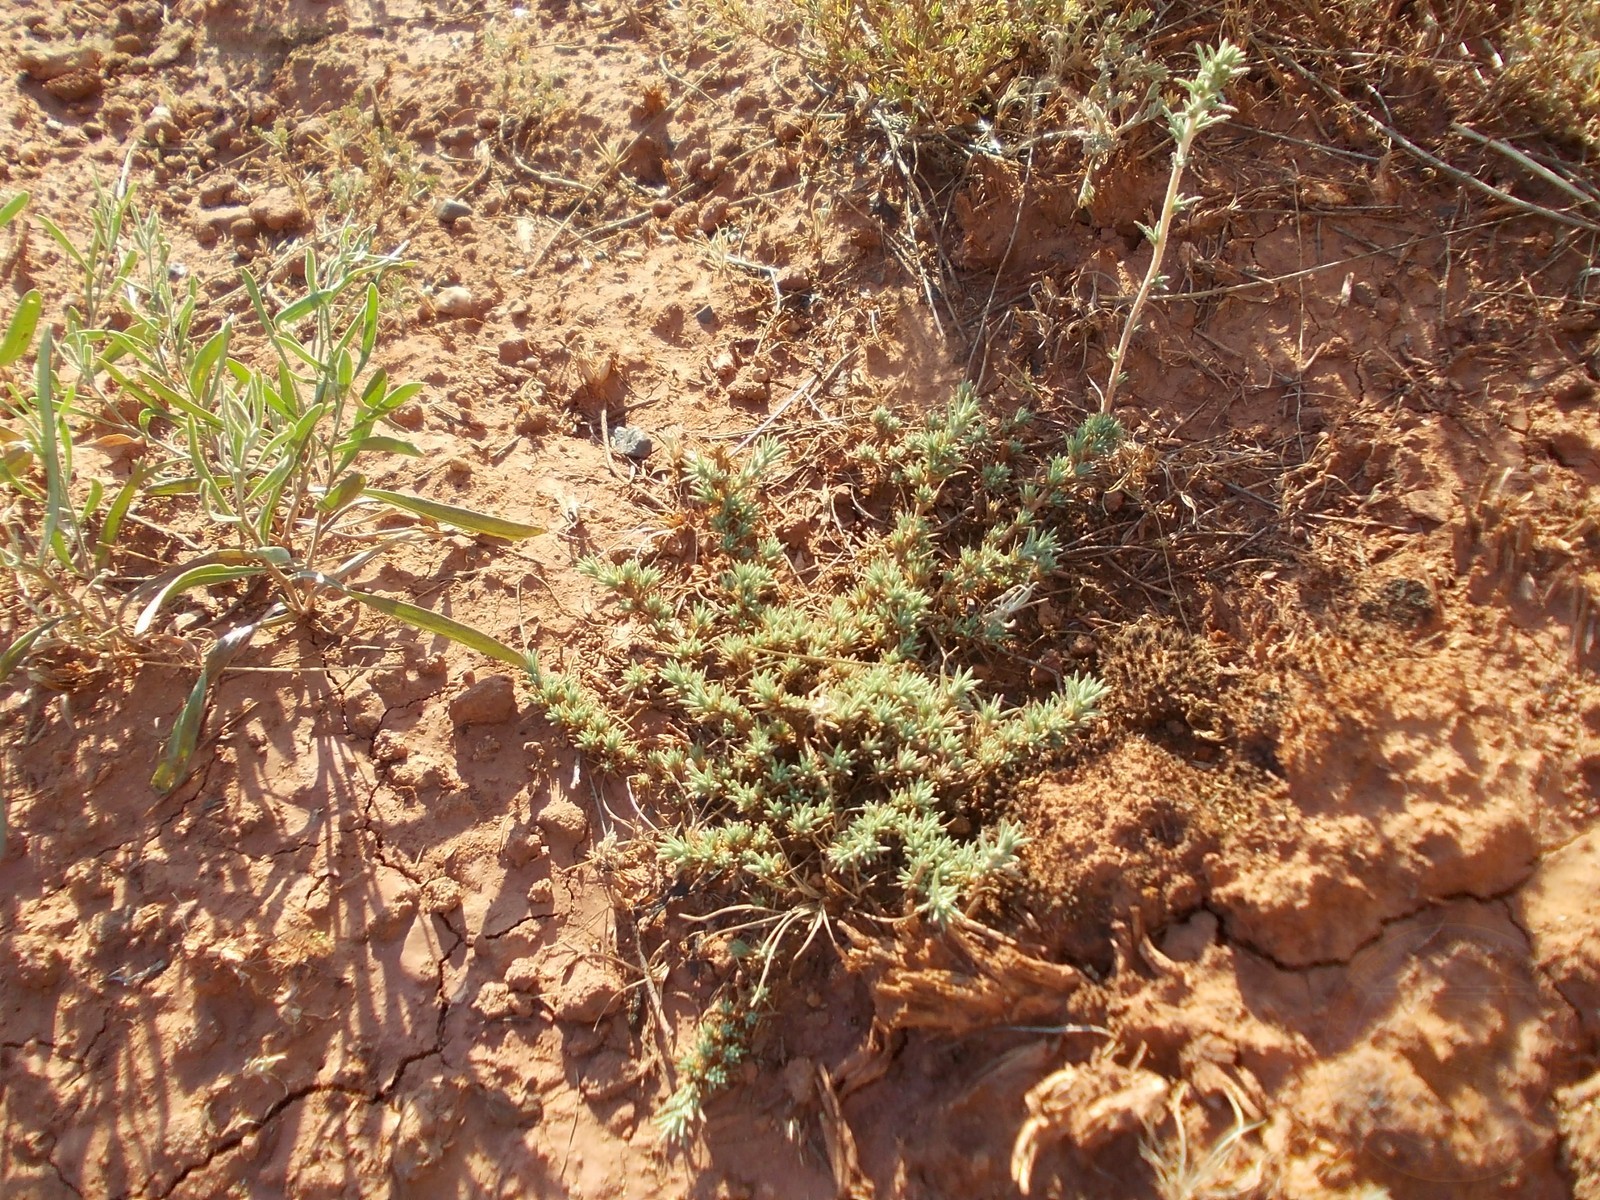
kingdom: Plantae
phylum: Tracheophyta
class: Magnoliopsida
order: Caryophyllales
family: Amaranthaceae
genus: Camphorosma
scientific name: Camphorosma monspeliaca
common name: Camphorfume
